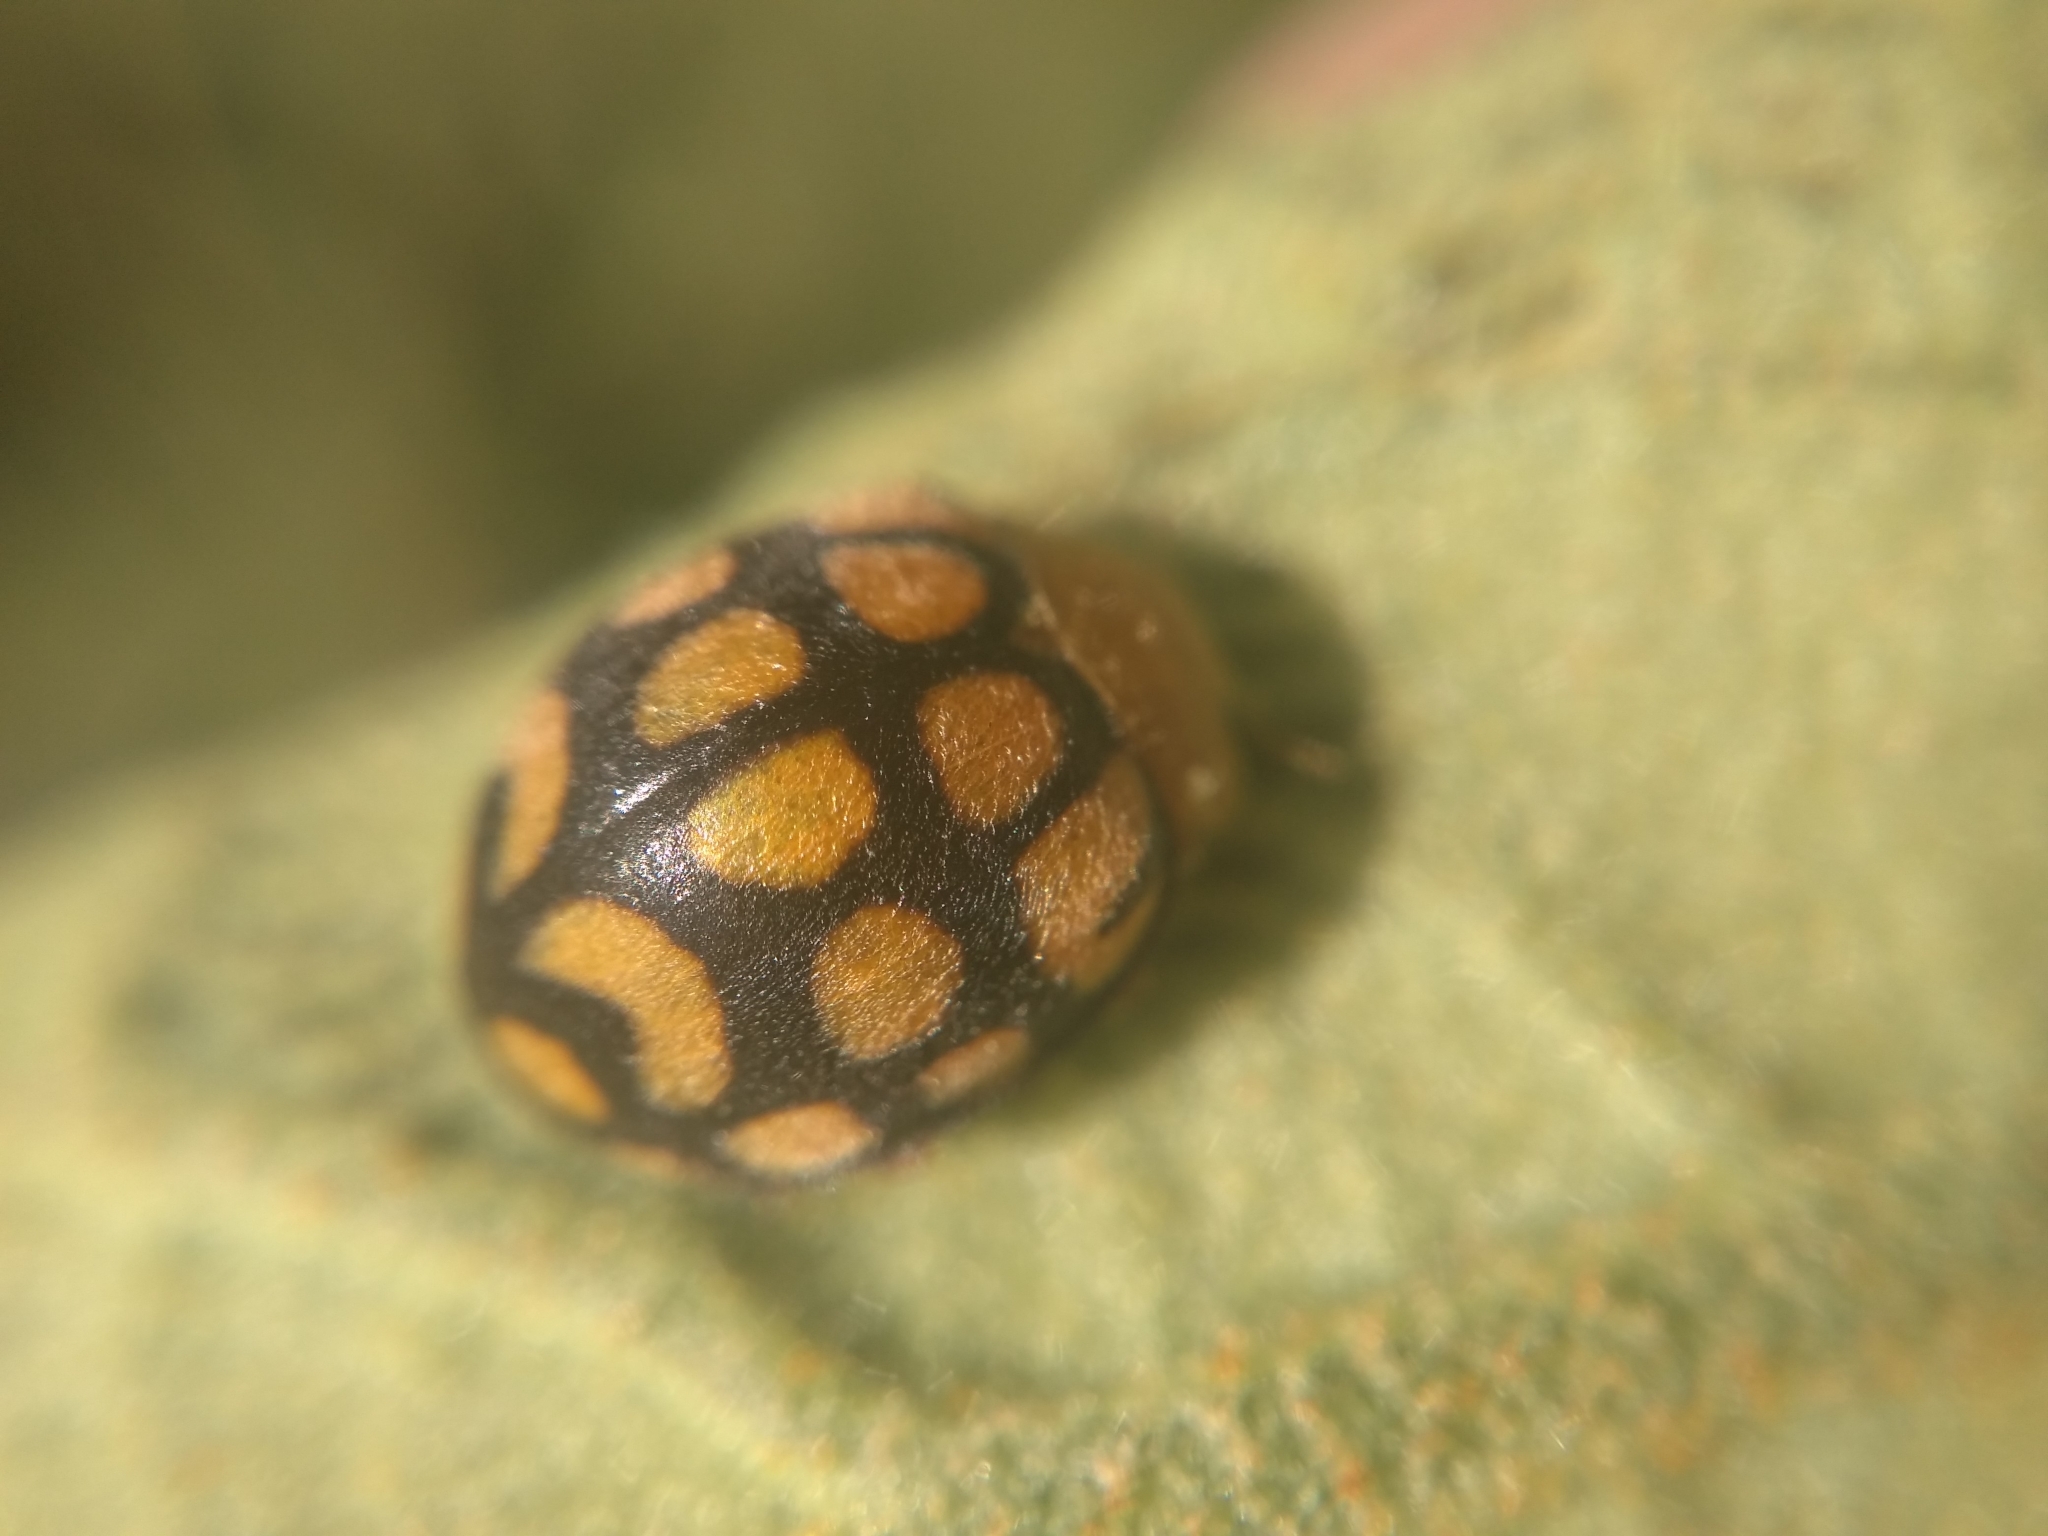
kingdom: Animalia
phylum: Arthropoda
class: Insecta
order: Coleoptera
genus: Solanophila
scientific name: Solanophila
